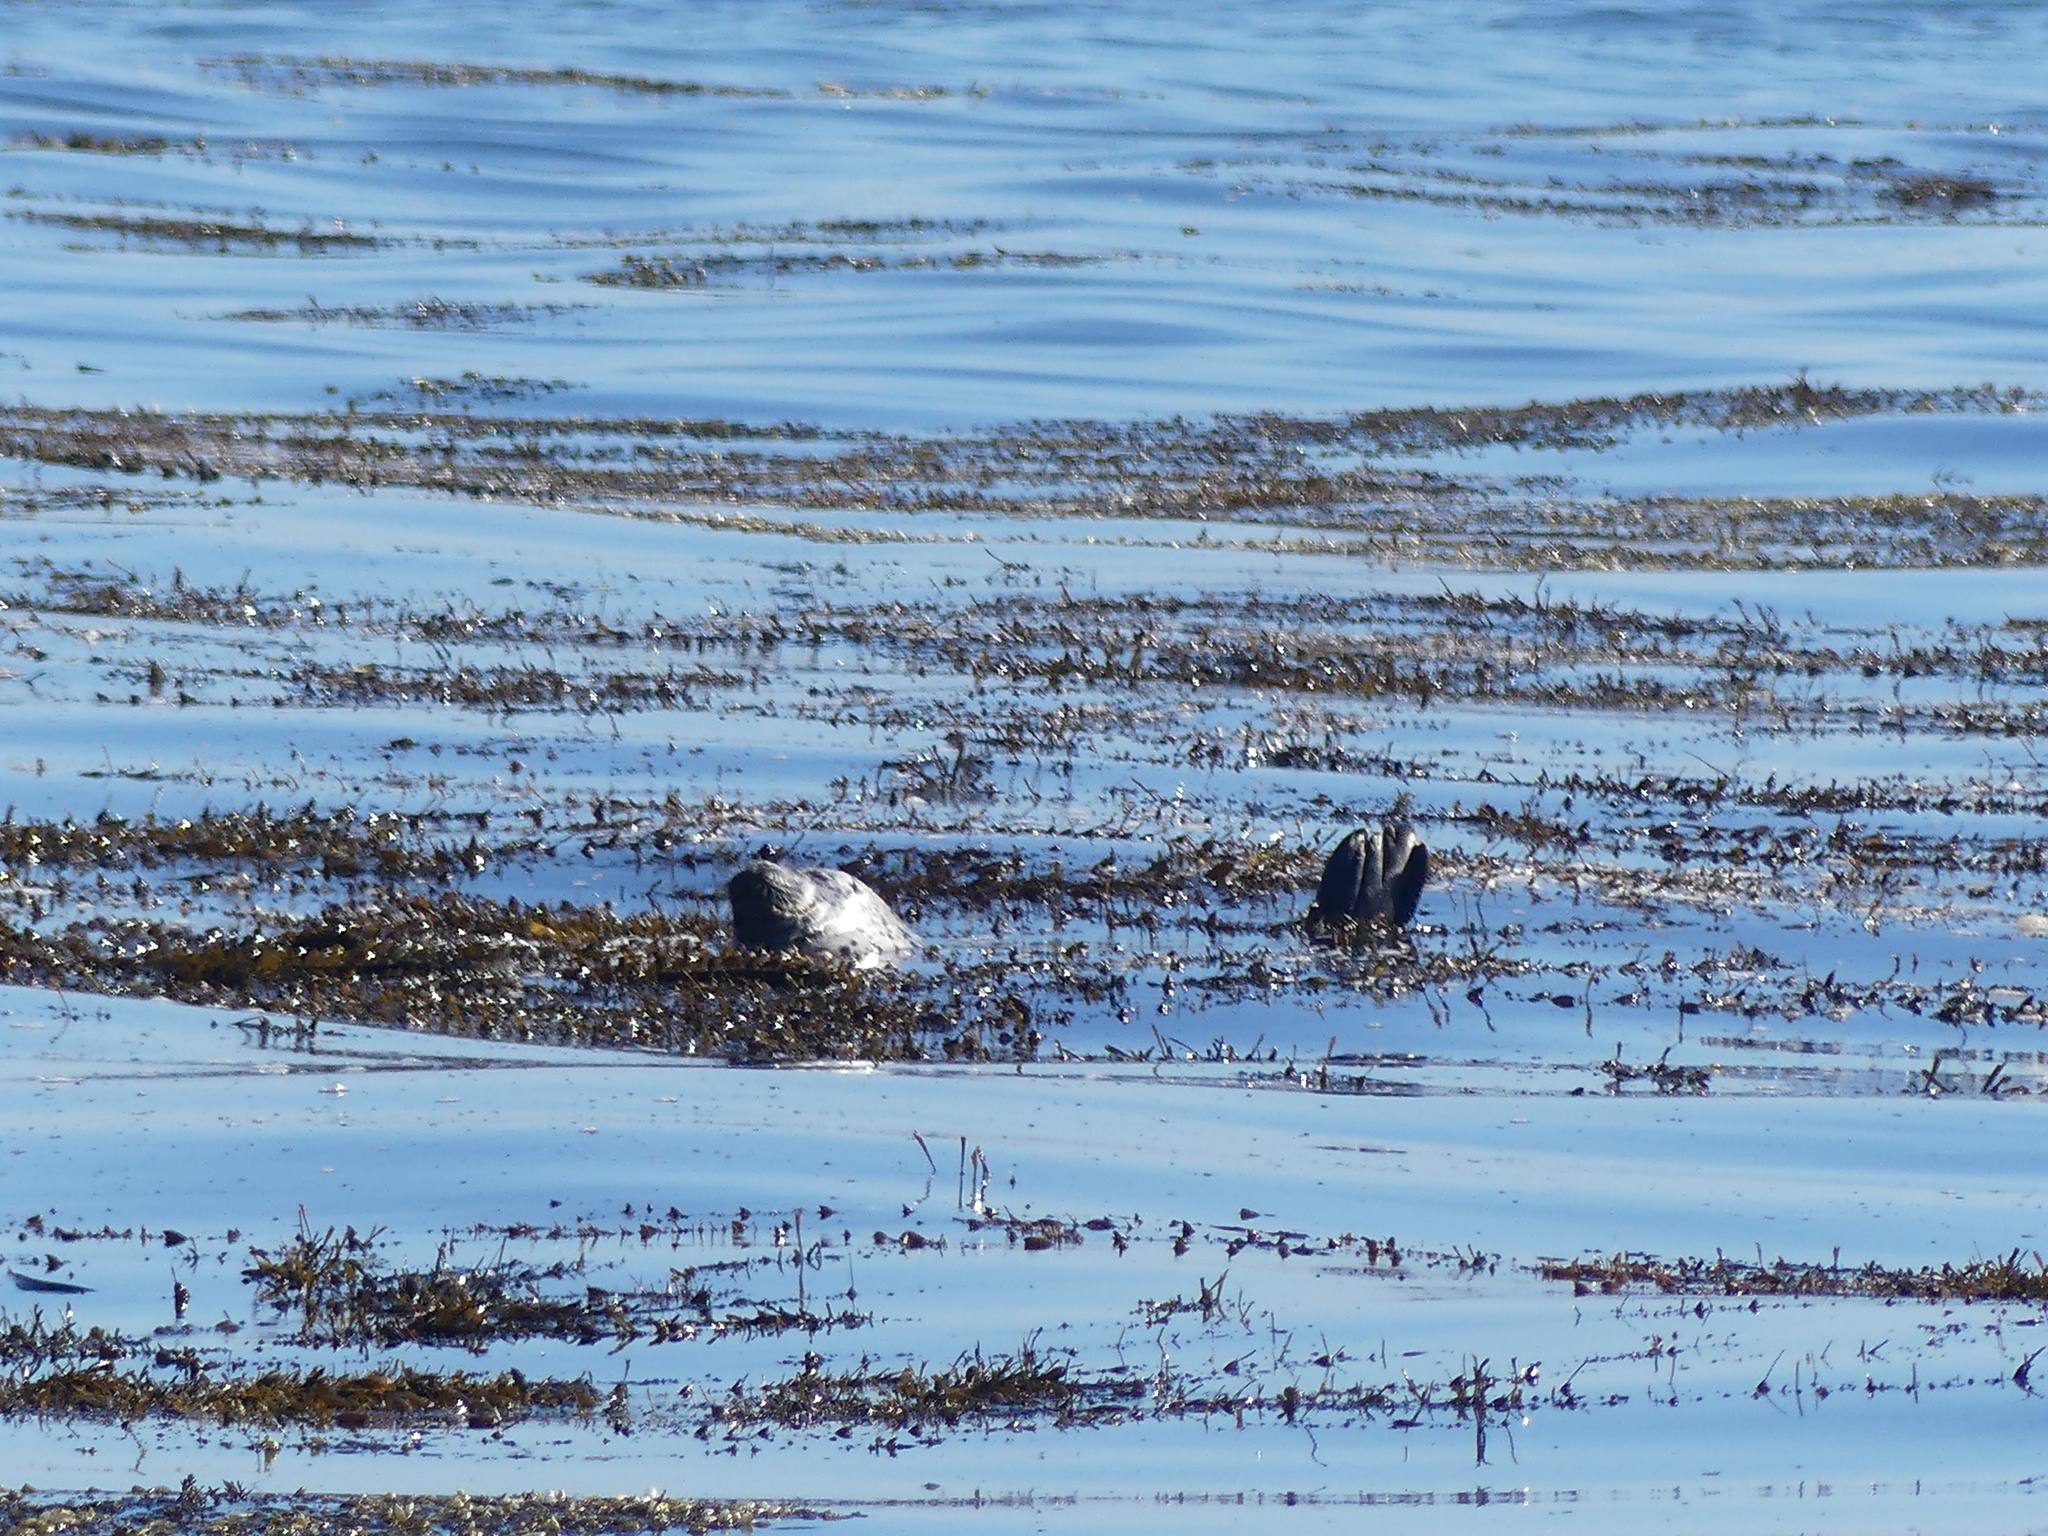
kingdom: Animalia
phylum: Chordata
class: Mammalia
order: Carnivora
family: Phocidae
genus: Phoca
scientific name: Phoca vitulina
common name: Harbor seal
